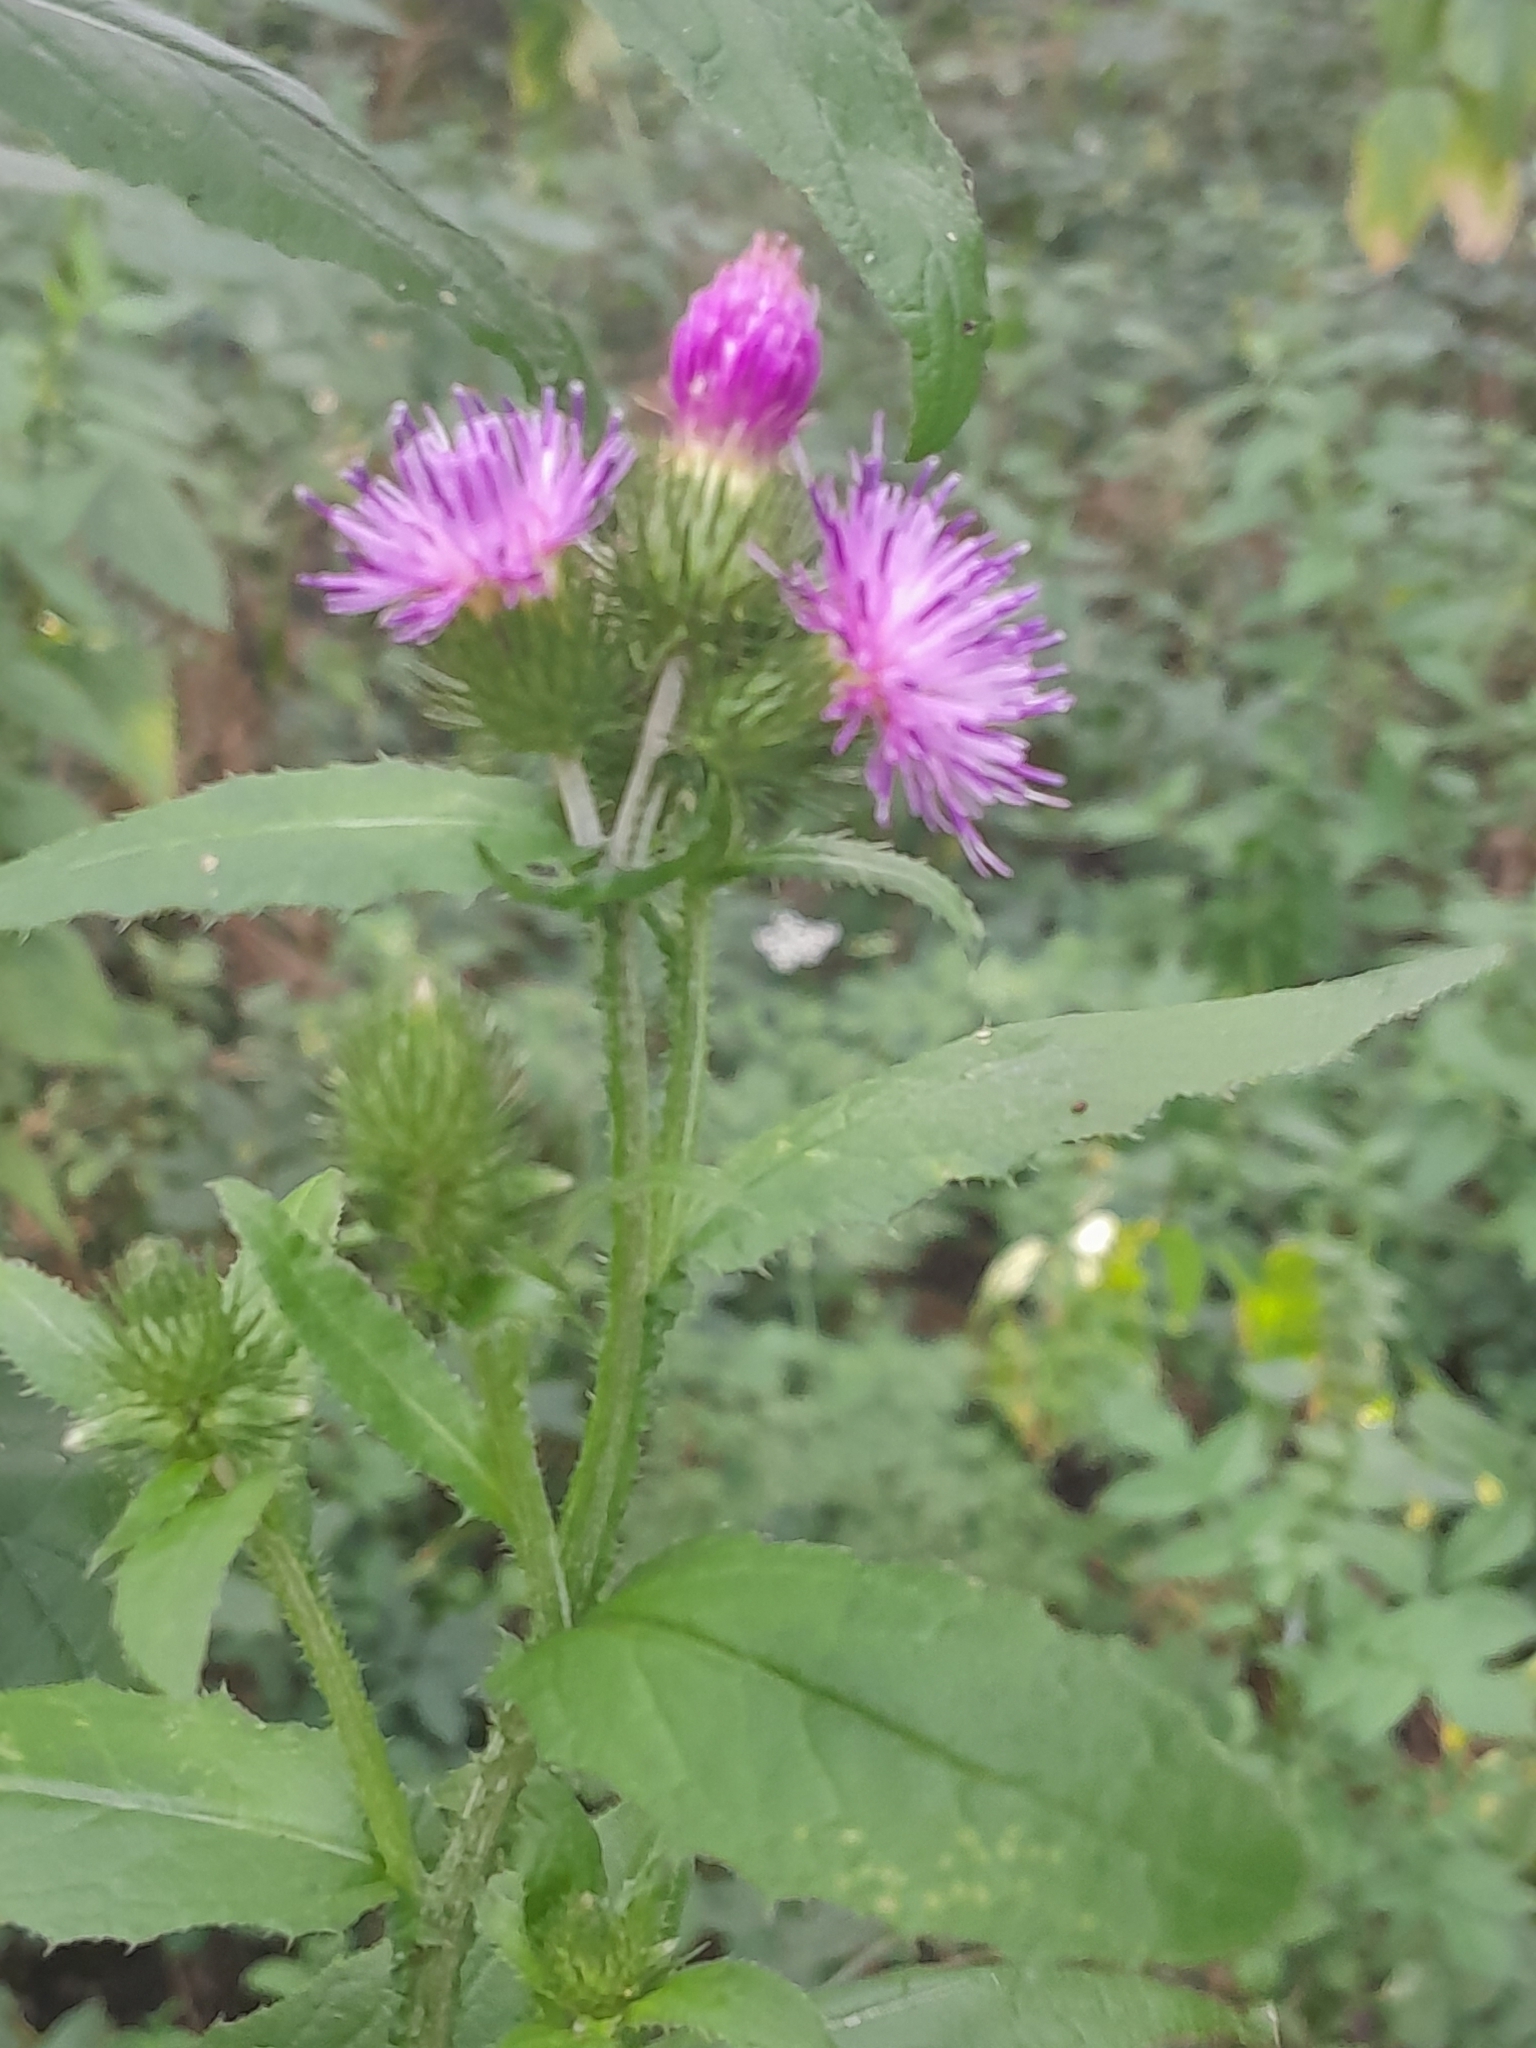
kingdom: Plantae
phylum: Tracheophyta
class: Magnoliopsida
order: Asterales
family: Asteraceae
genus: Carduus
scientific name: Carduus crispus
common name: Welted thistle
